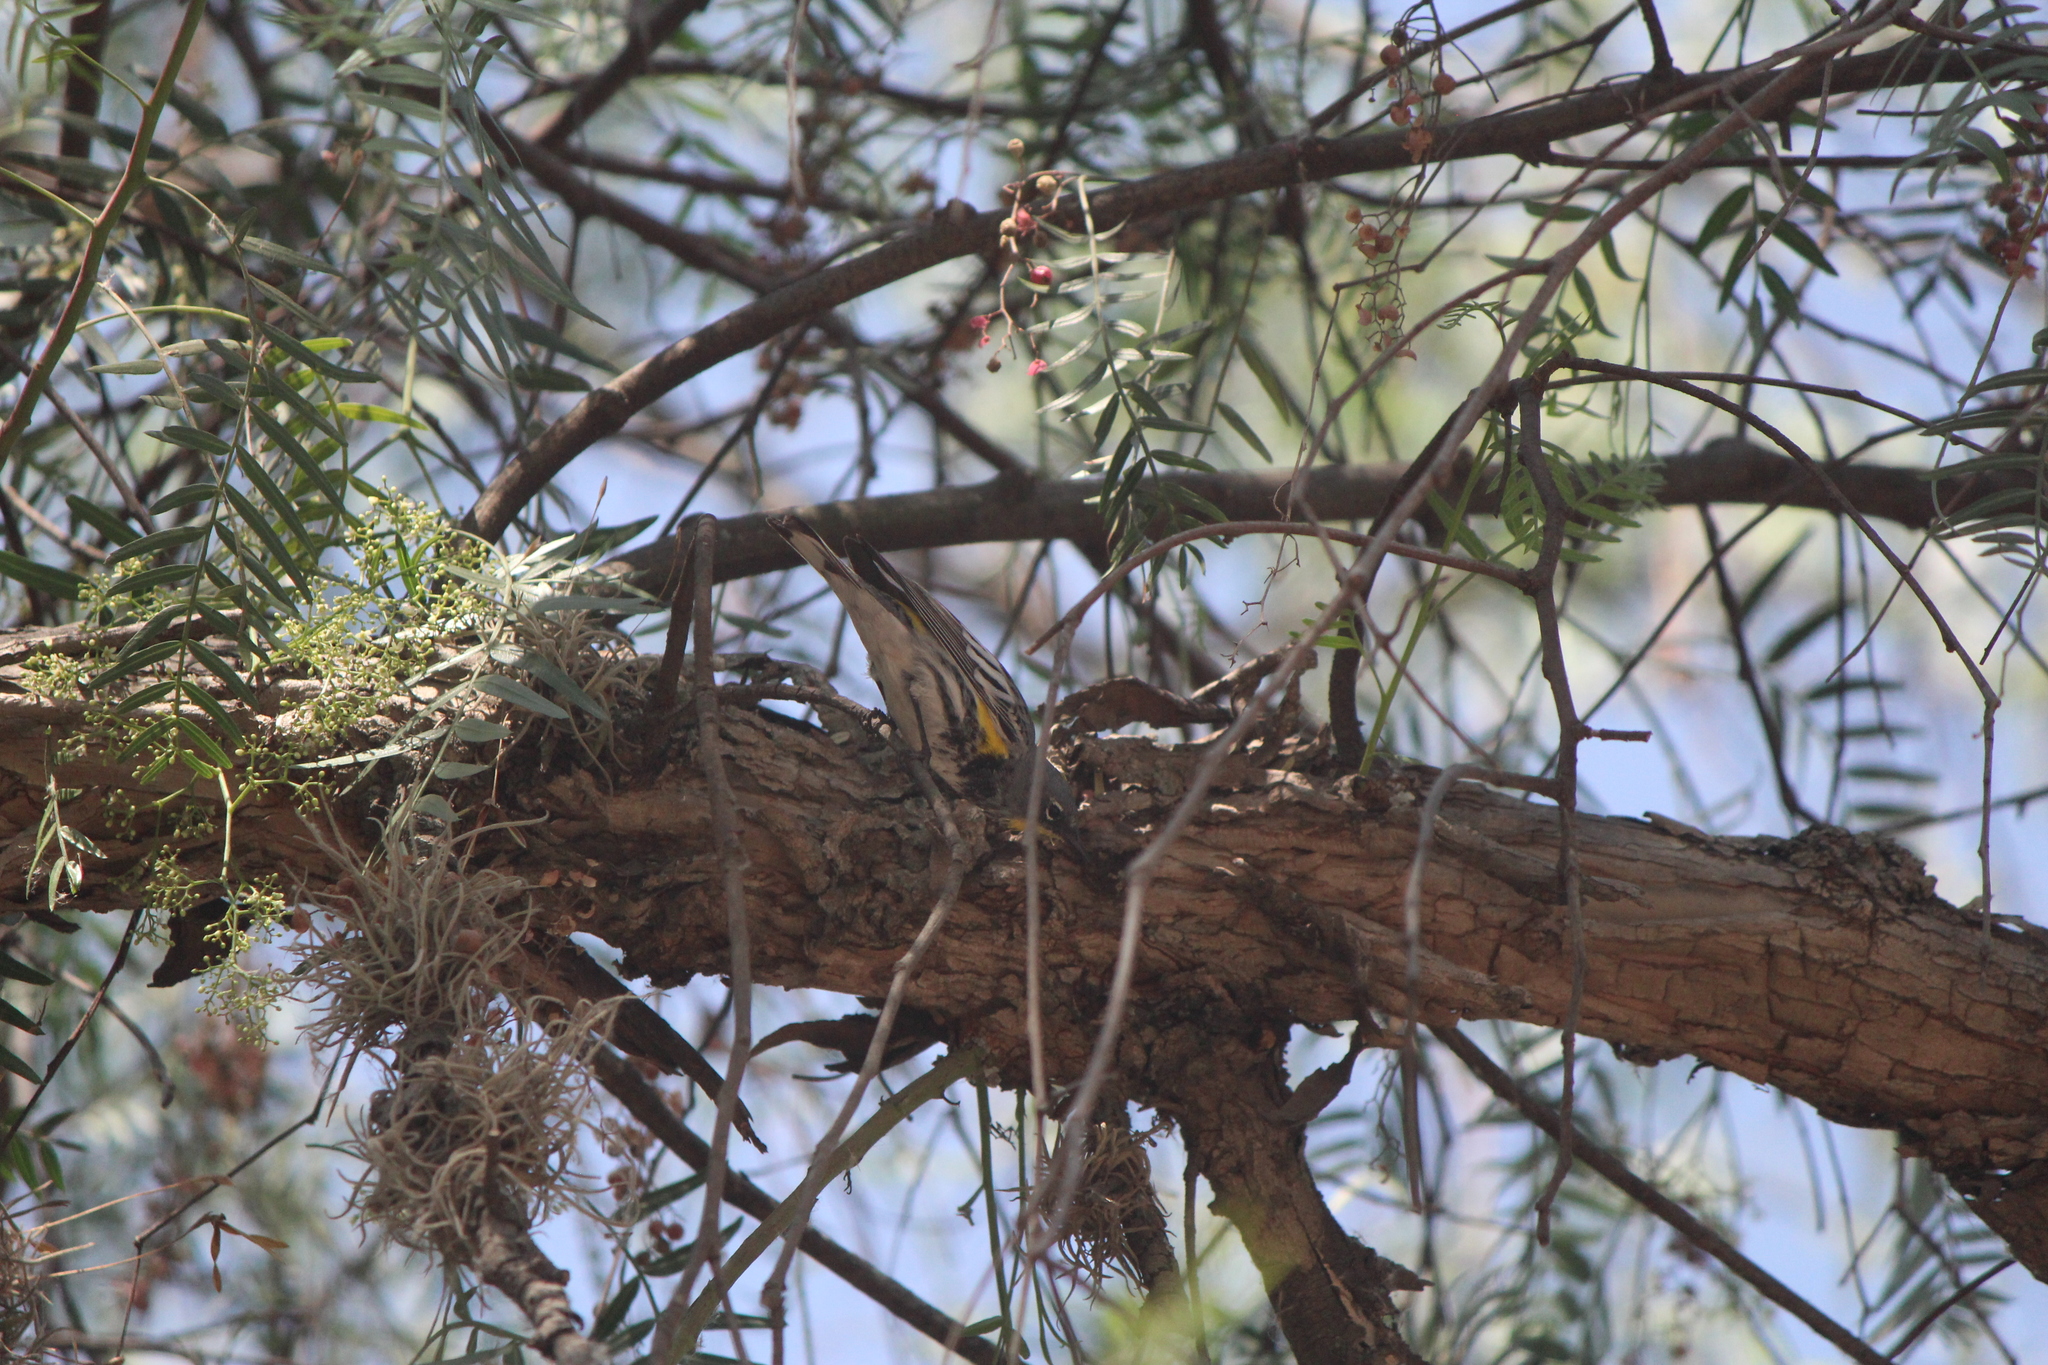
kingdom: Animalia
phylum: Chordata
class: Aves
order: Passeriformes
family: Parulidae
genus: Setophaga
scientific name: Setophaga auduboni
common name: Audubon's warbler
